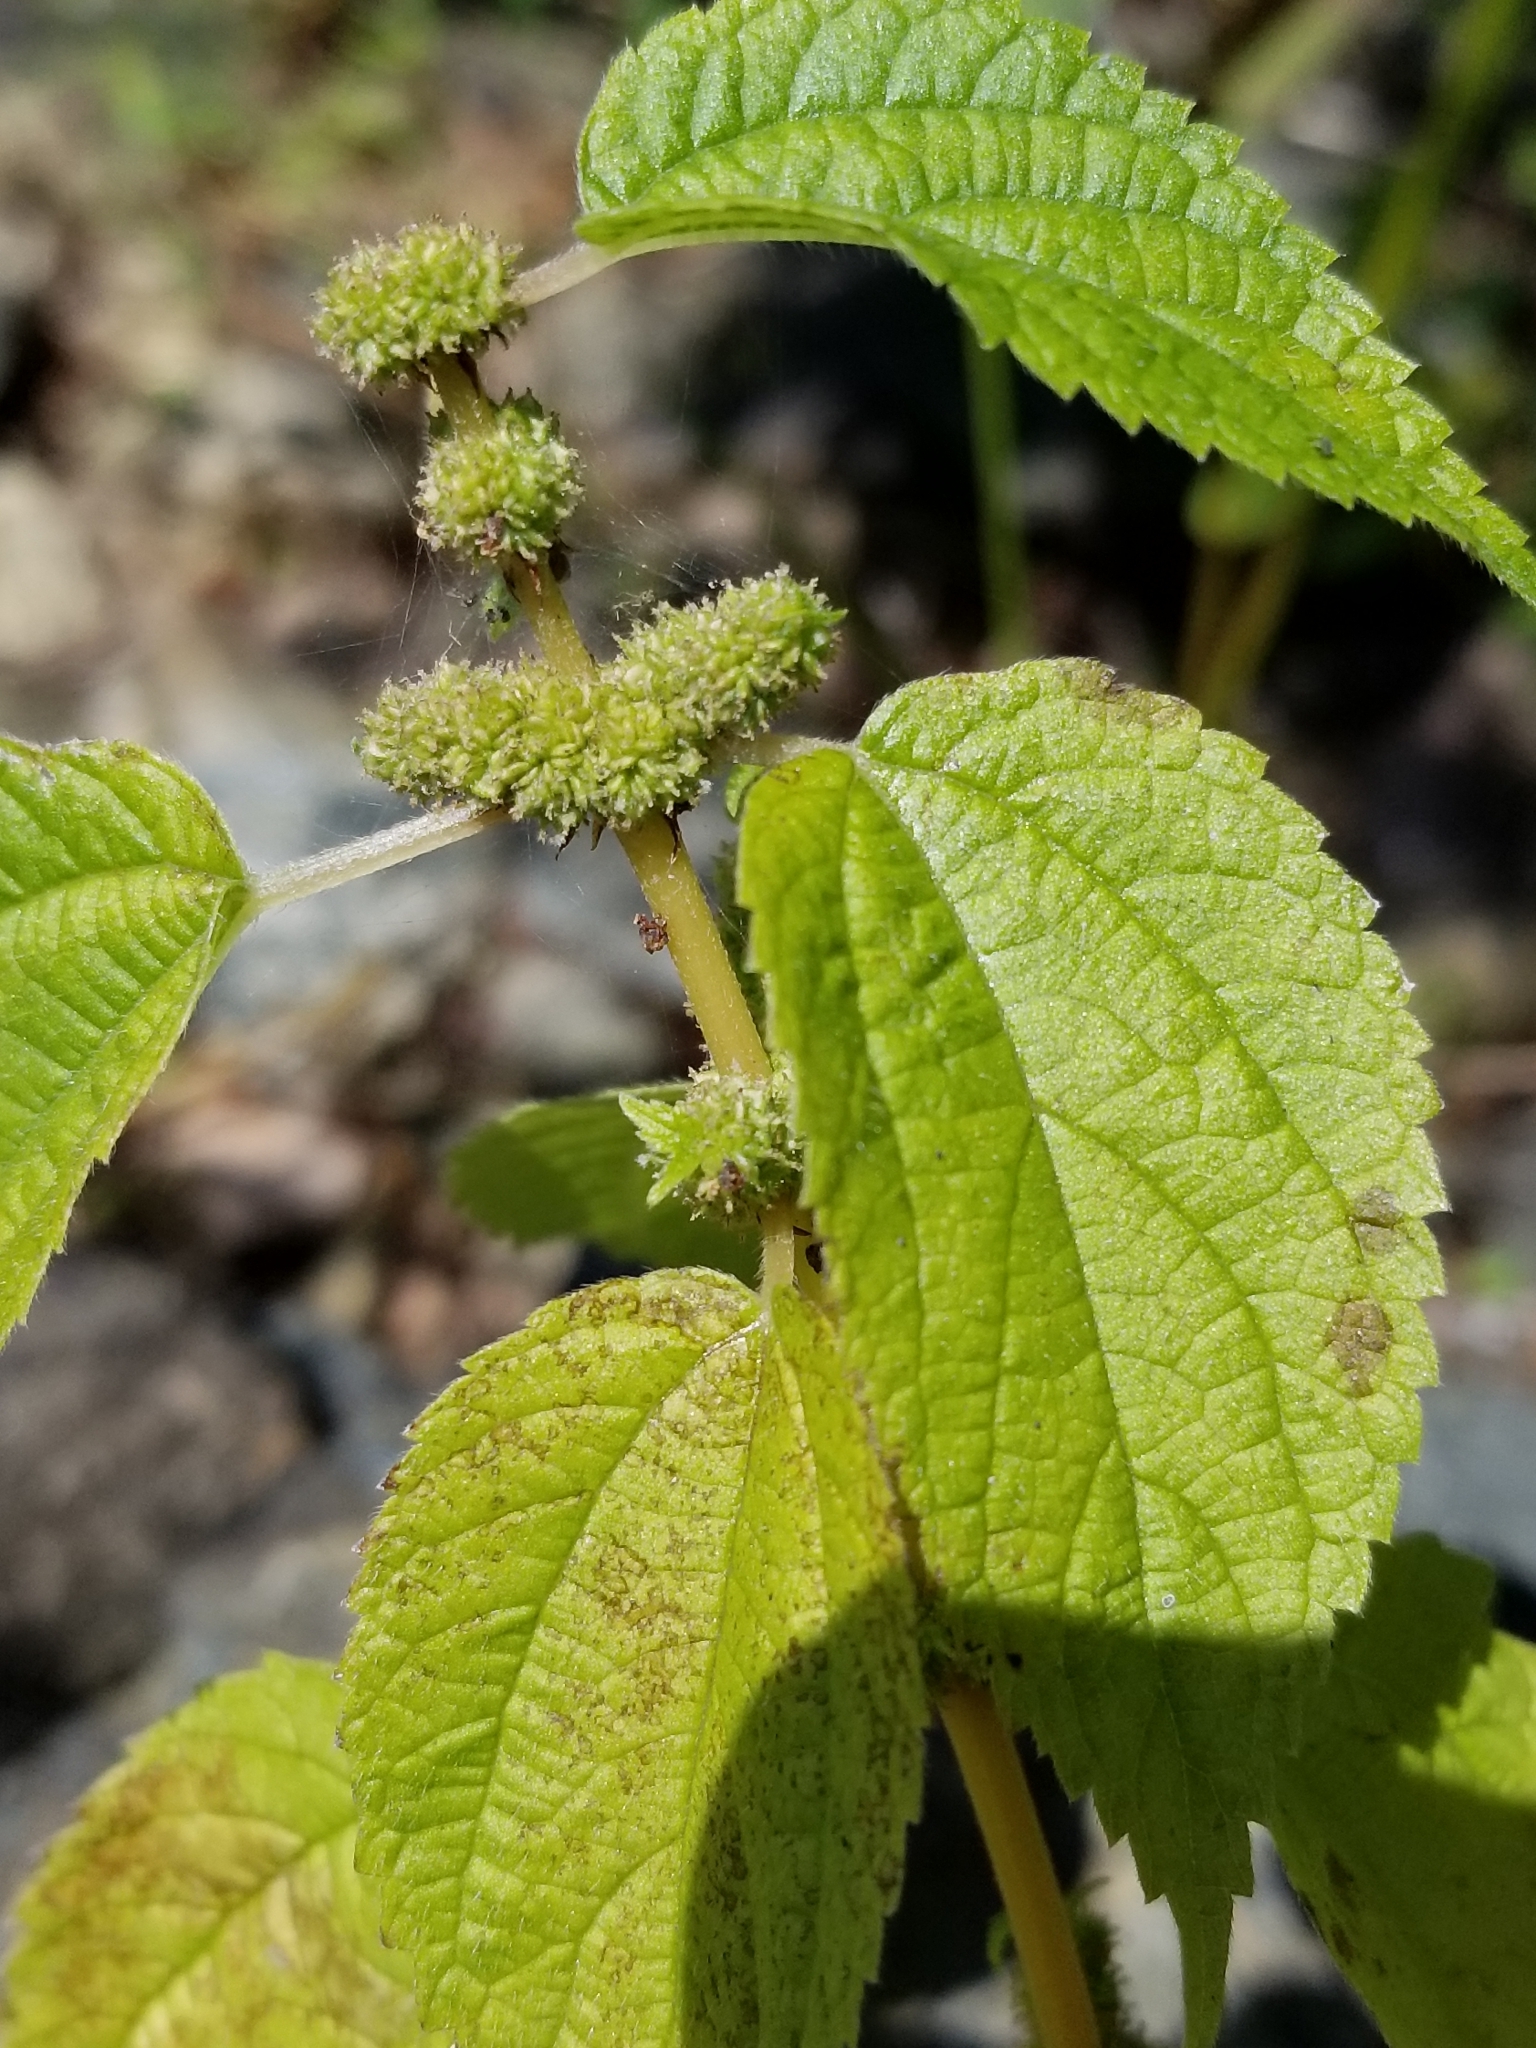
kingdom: Plantae
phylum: Tracheophyta
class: Magnoliopsida
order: Rosales
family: Urticaceae
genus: Boehmeria
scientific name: Boehmeria cylindrica
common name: Bog-hemp
